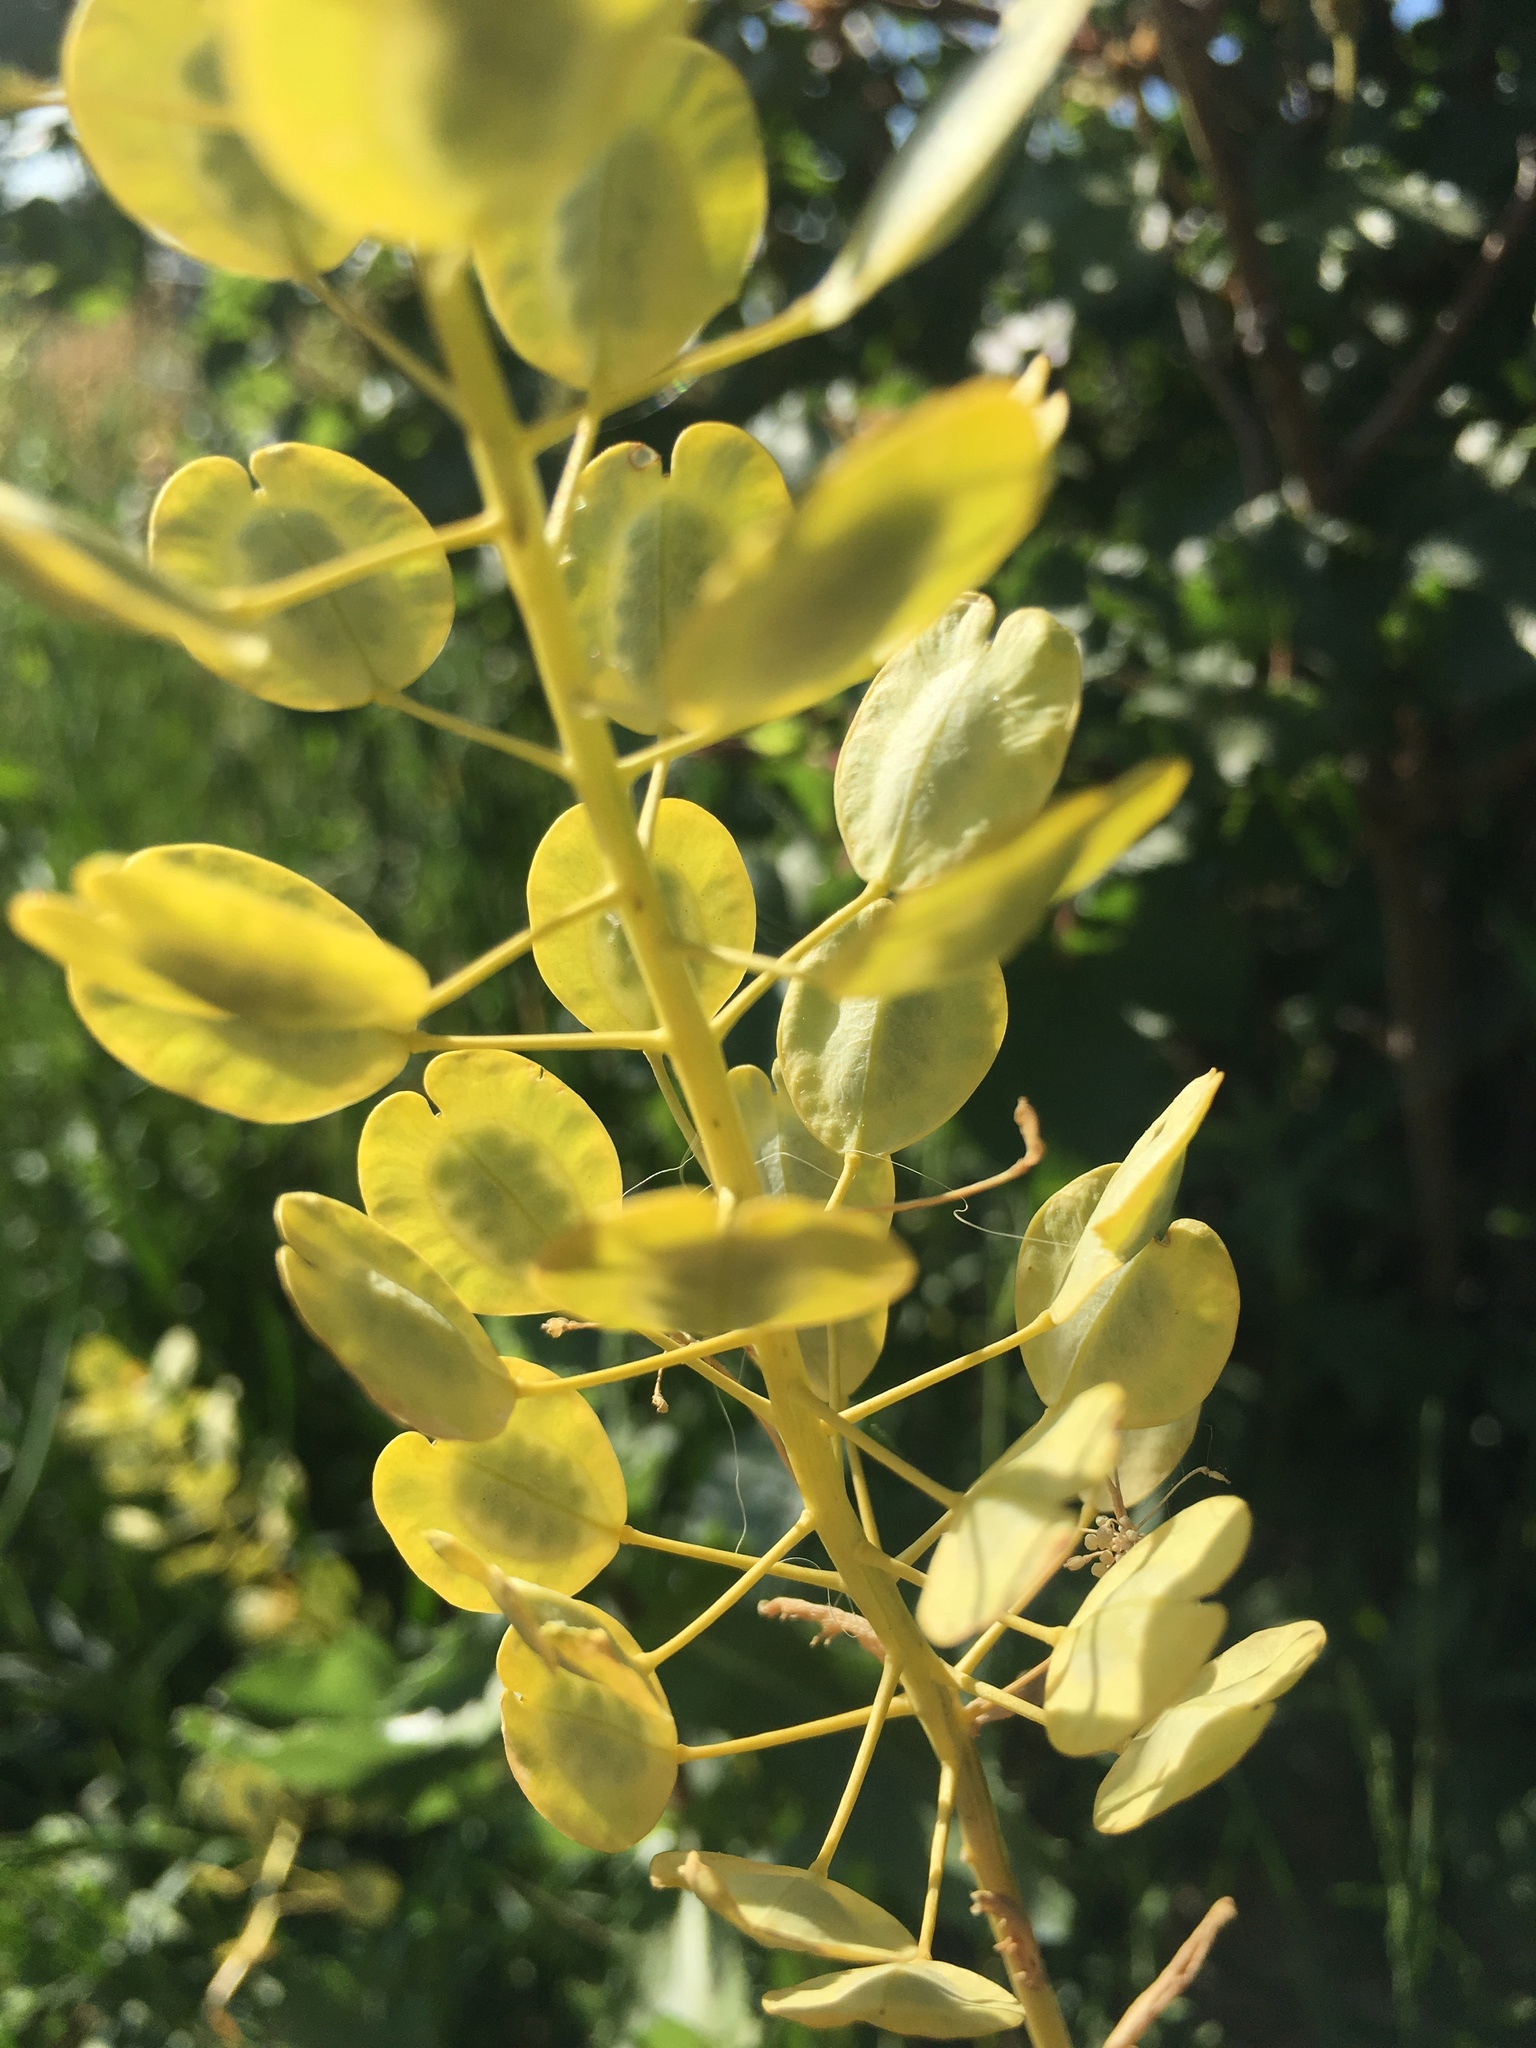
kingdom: Plantae
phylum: Tracheophyta
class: Magnoliopsida
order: Brassicales
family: Brassicaceae
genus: Thlaspi
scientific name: Thlaspi arvense
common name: Field pennycress
